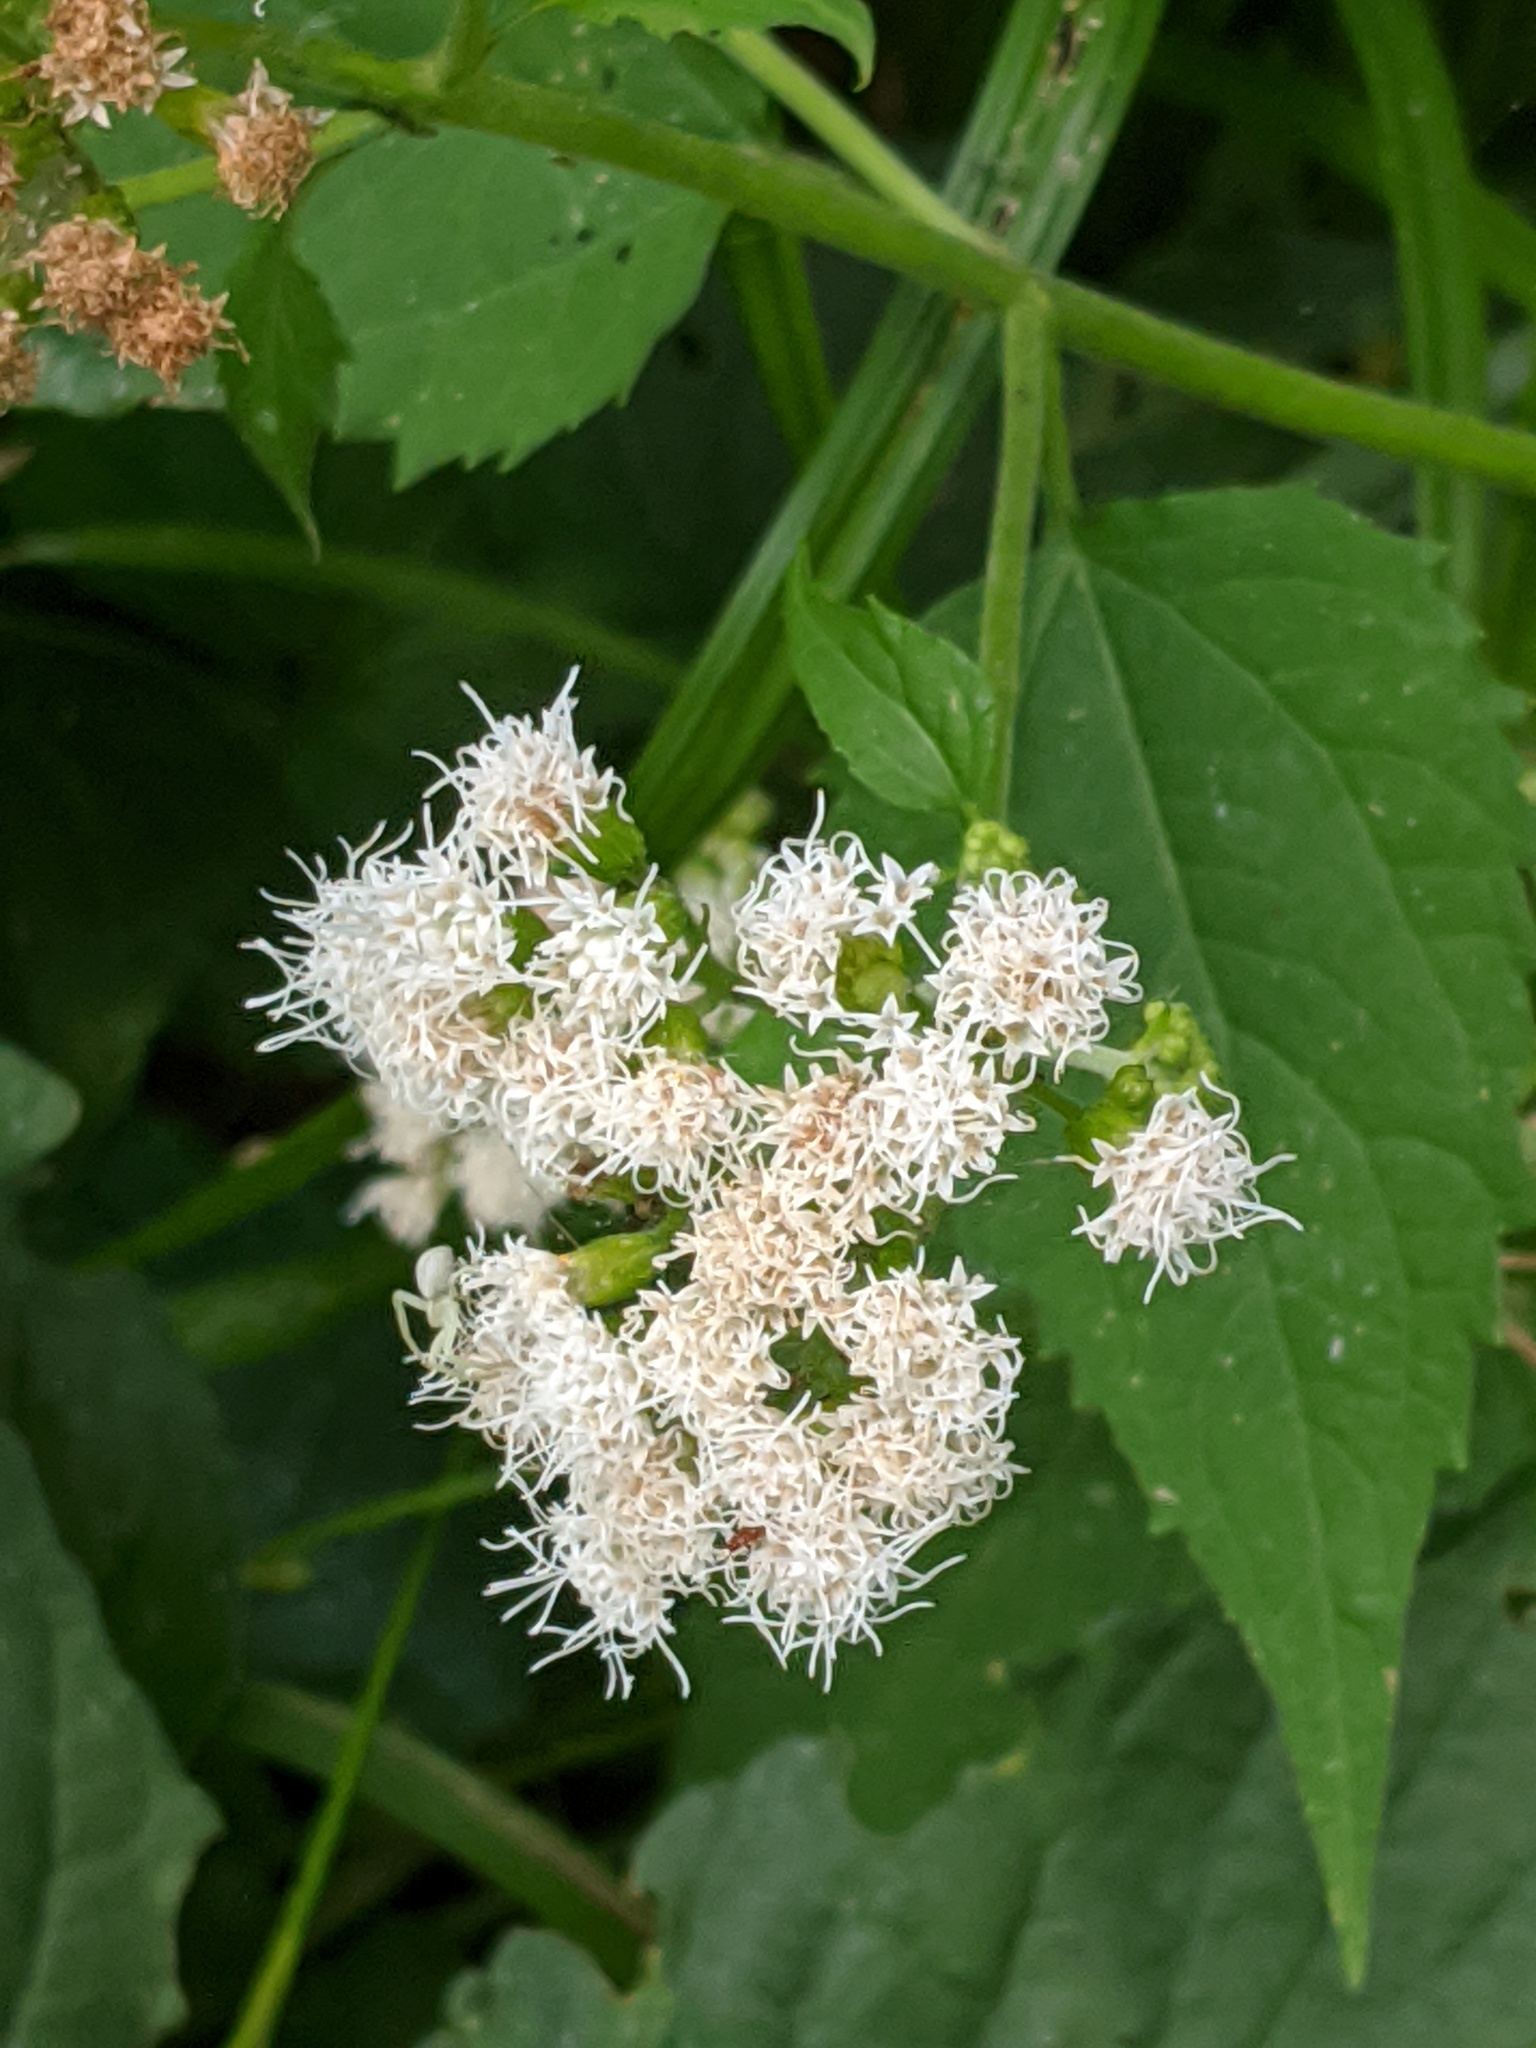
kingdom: Plantae
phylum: Tracheophyta
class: Magnoliopsida
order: Asterales
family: Asteraceae
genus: Ageratina
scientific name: Ageratina altissima
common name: White snakeroot
